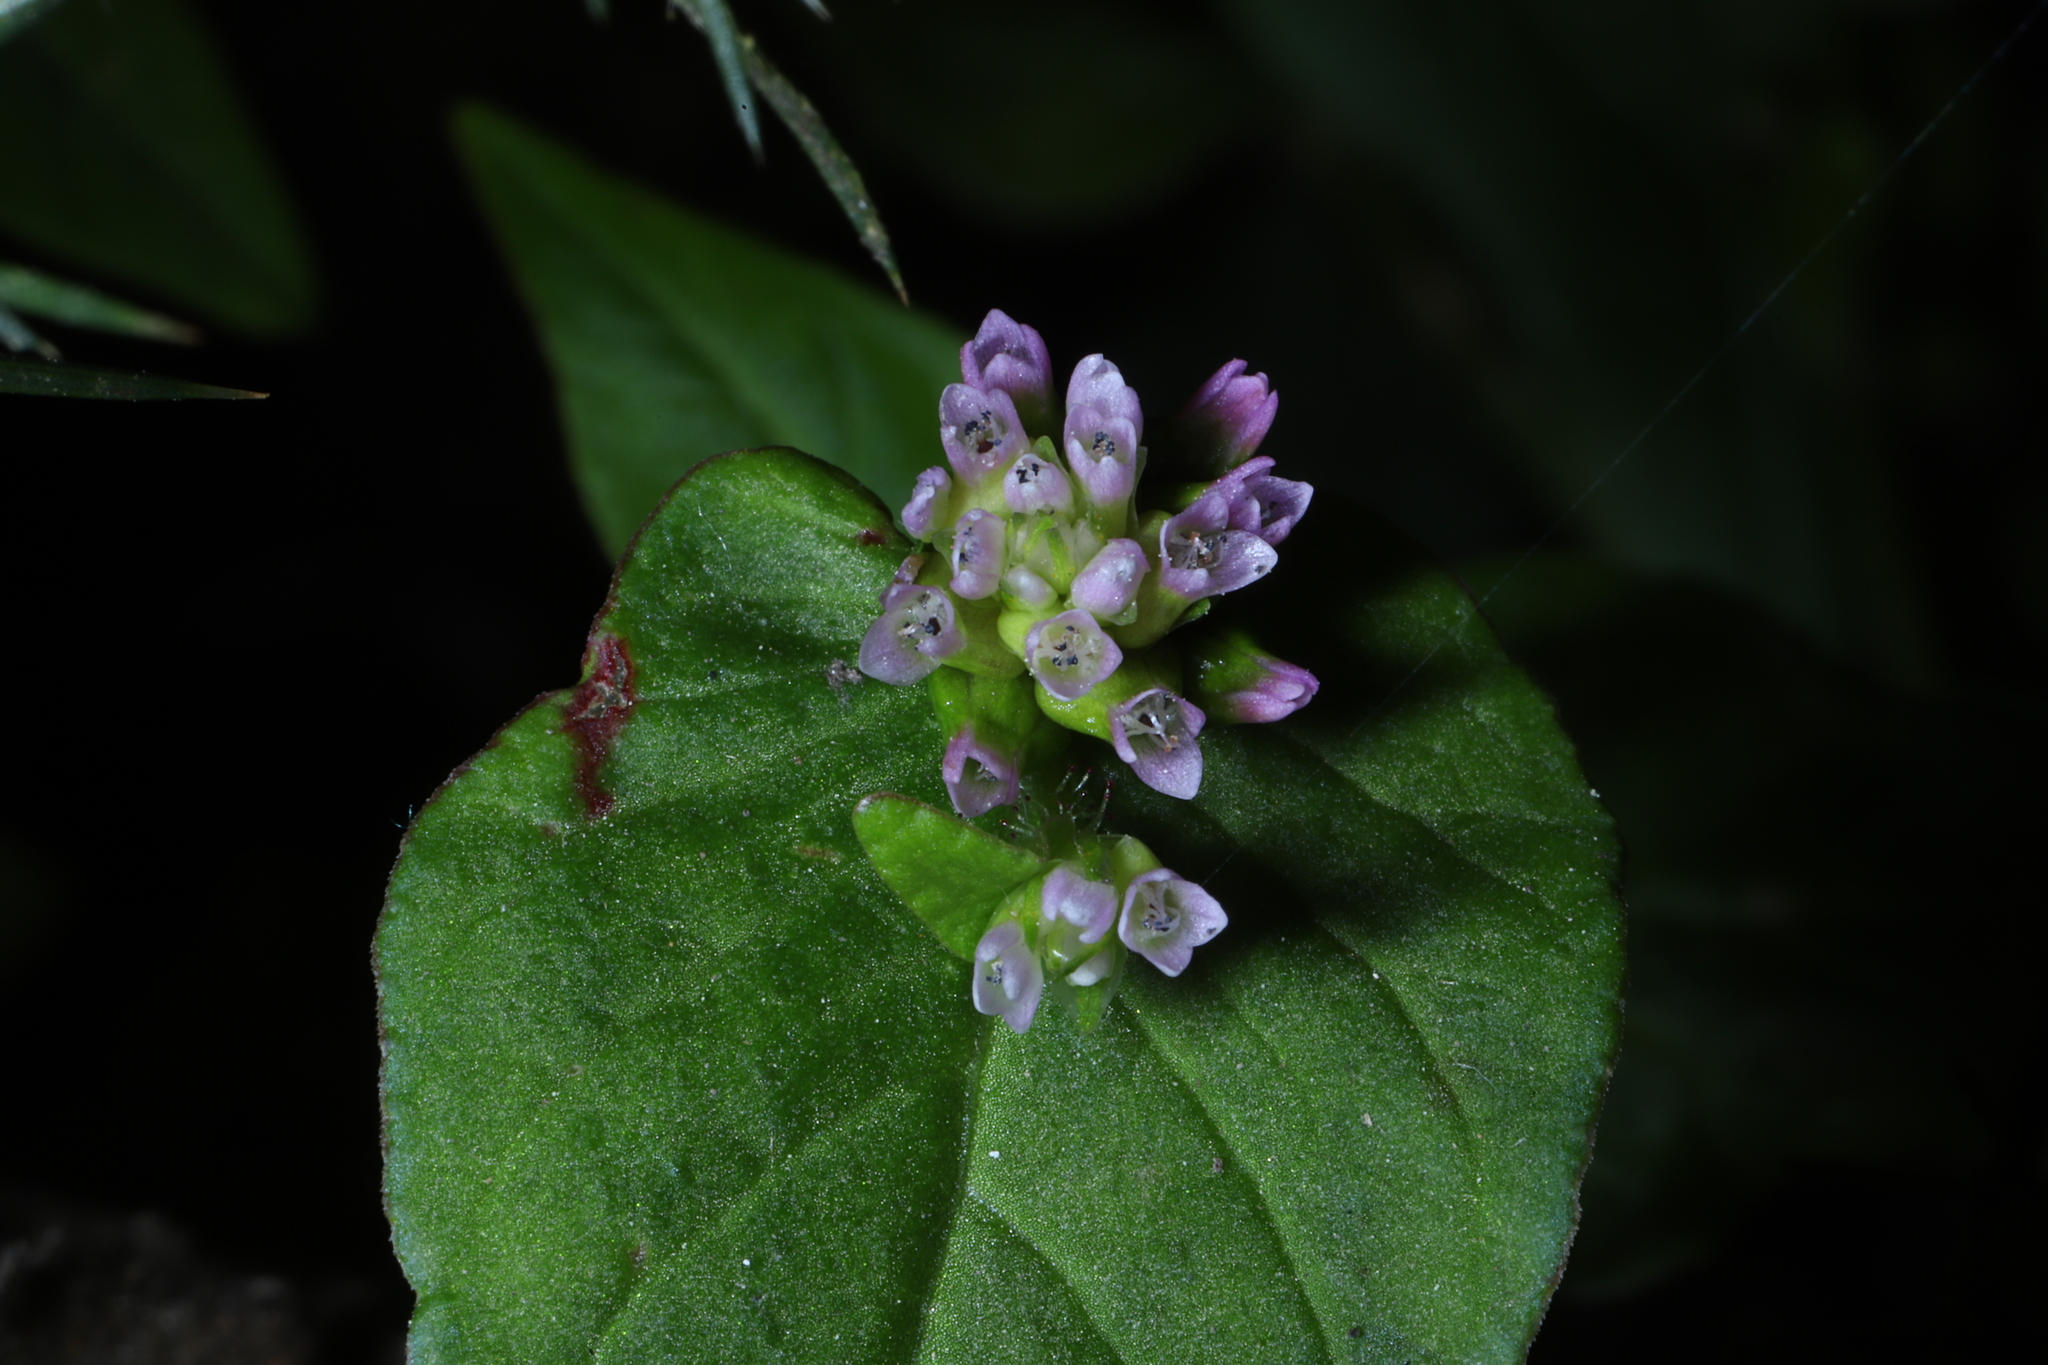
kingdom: Plantae
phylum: Tracheophyta
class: Magnoliopsida
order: Caryophyllales
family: Polygonaceae
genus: Persicaria
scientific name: Persicaria nepalensis
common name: Nepal persicaria
